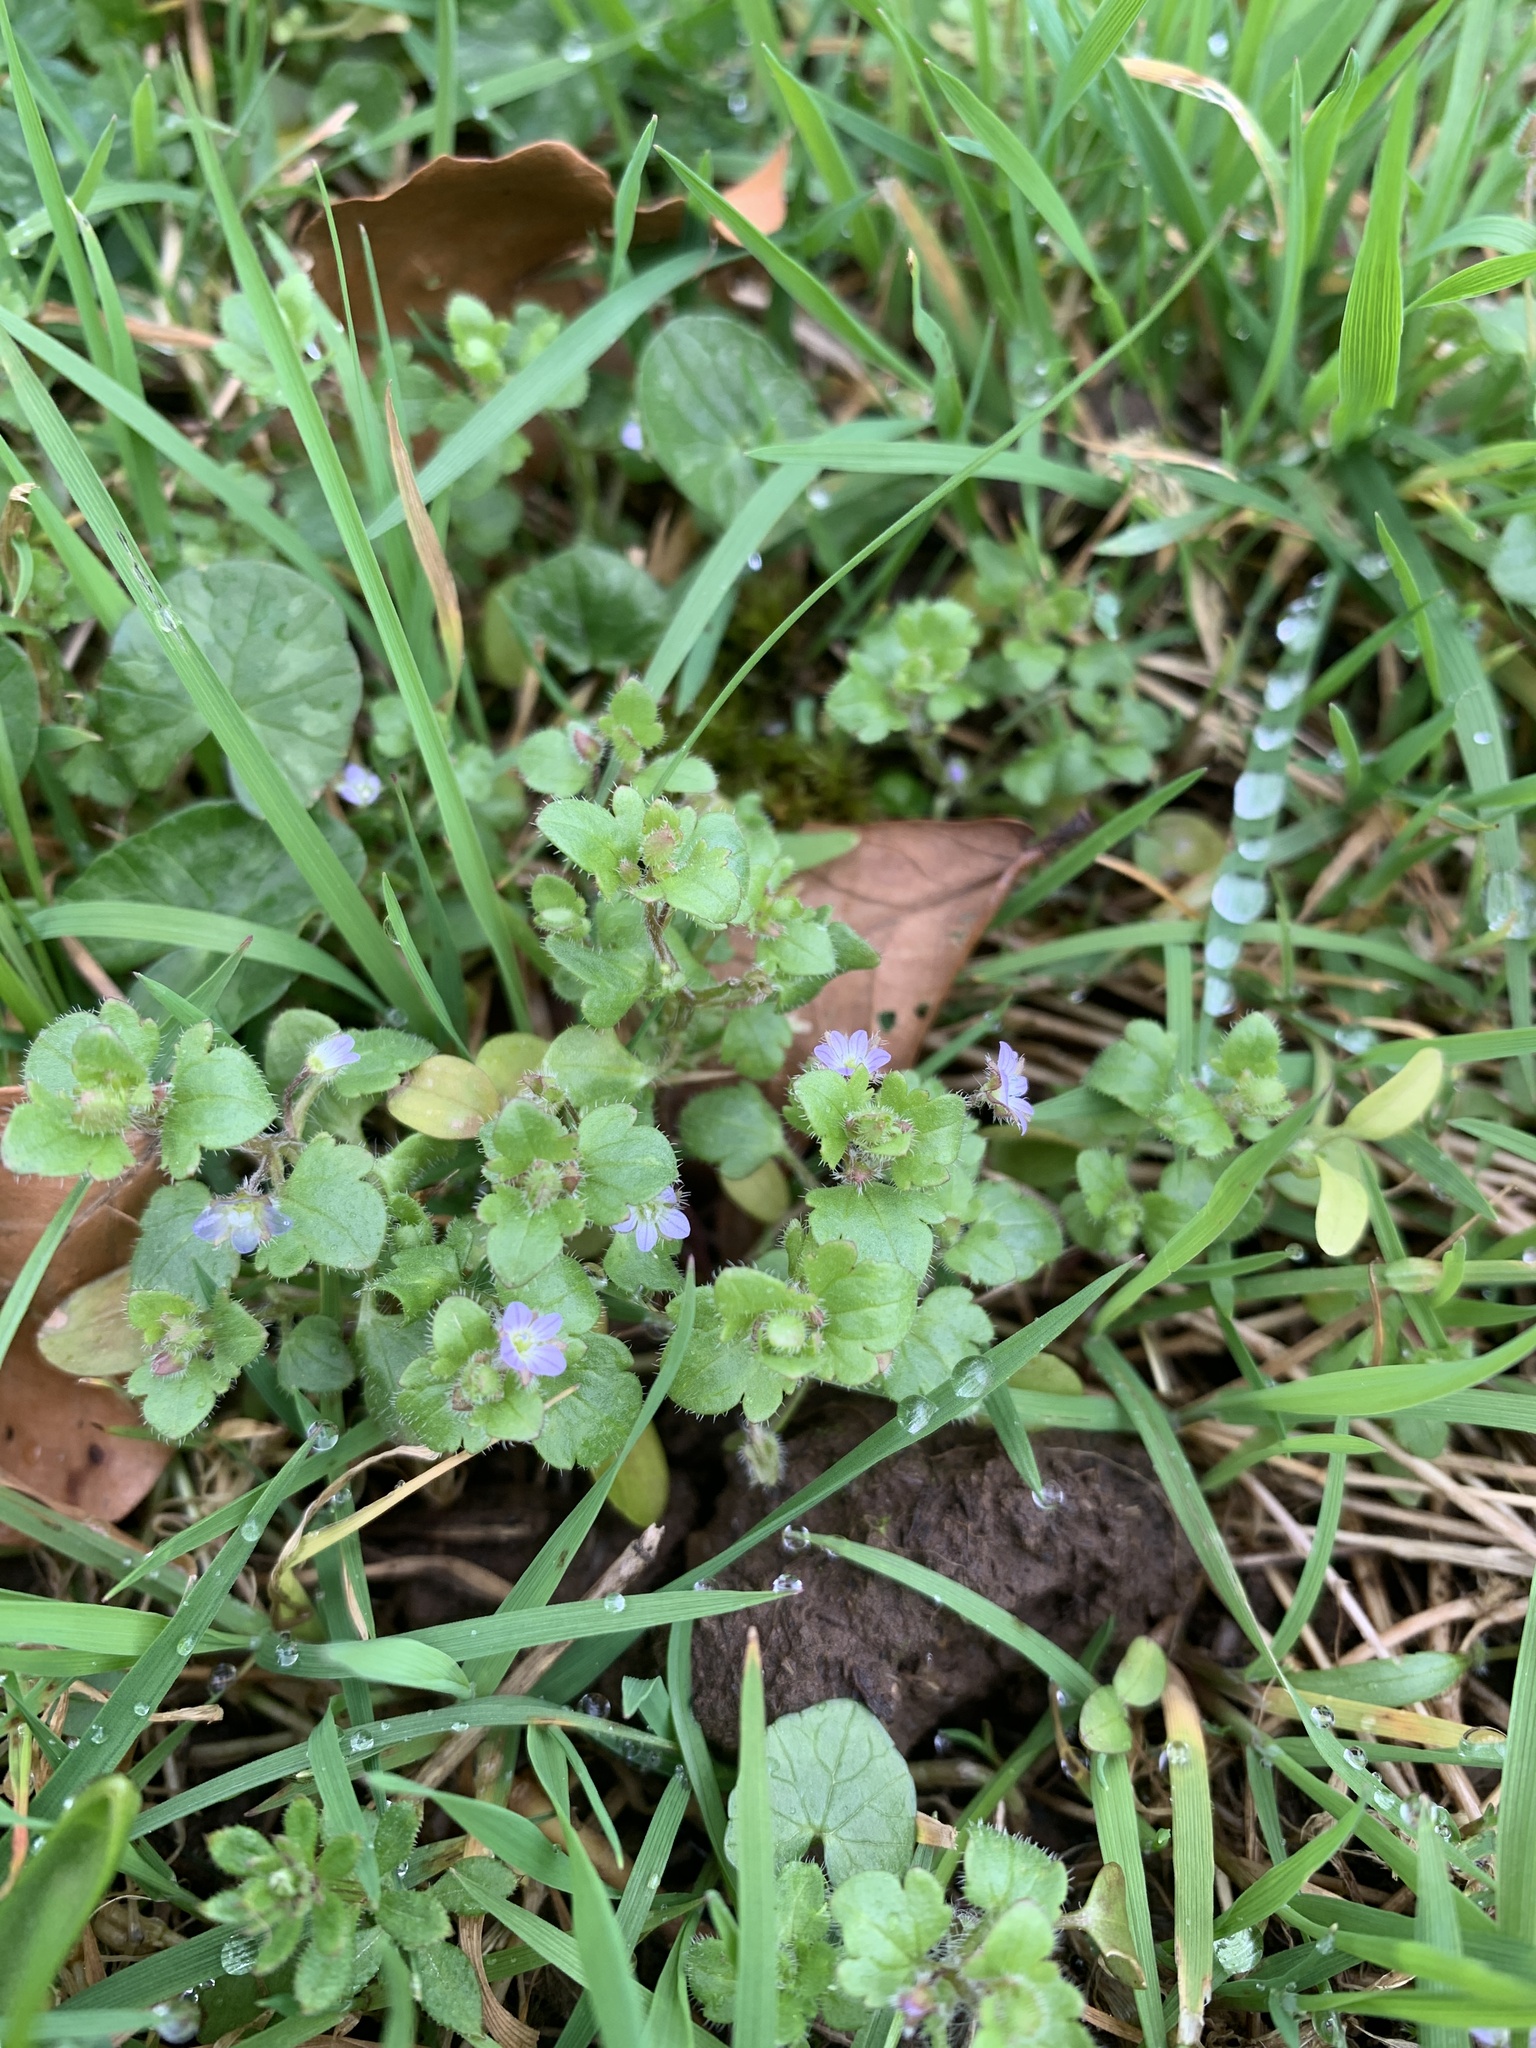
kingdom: Plantae
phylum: Tracheophyta
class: Magnoliopsida
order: Lamiales
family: Plantaginaceae
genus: Veronica
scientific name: Veronica hederifolia
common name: Ivy-leaved speedwell
